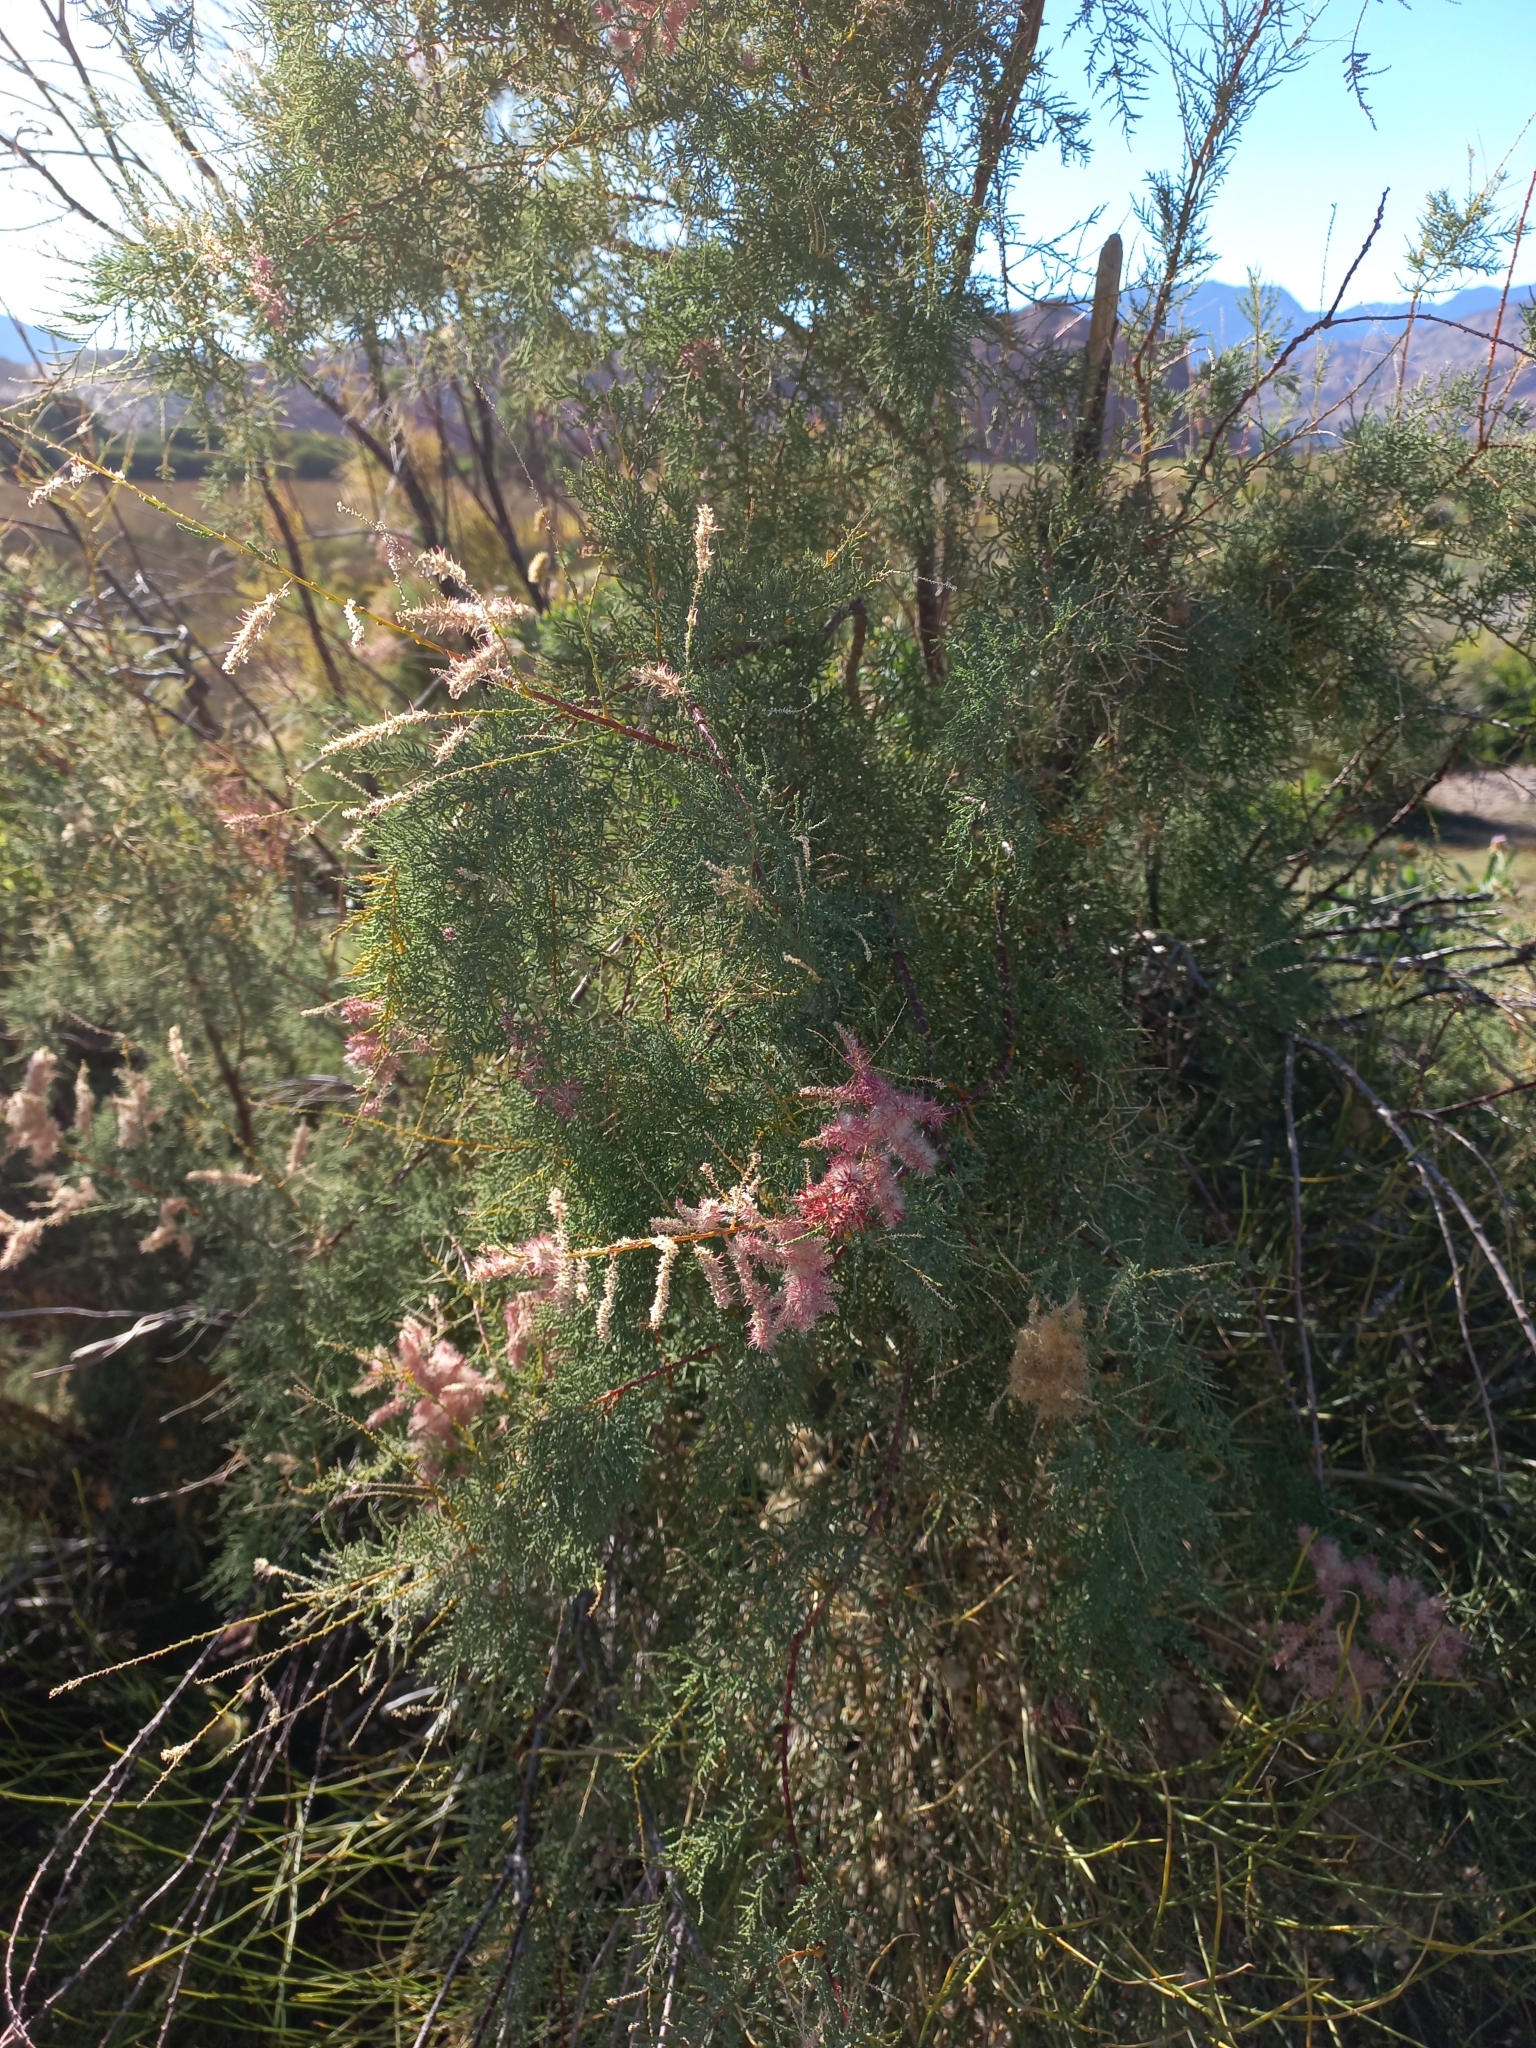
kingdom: Plantae
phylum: Tracheophyta
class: Magnoliopsida
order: Caryophyllales
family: Tamaricaceae
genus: Tamarix
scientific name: Tamarix gallica
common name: Tamarisk
